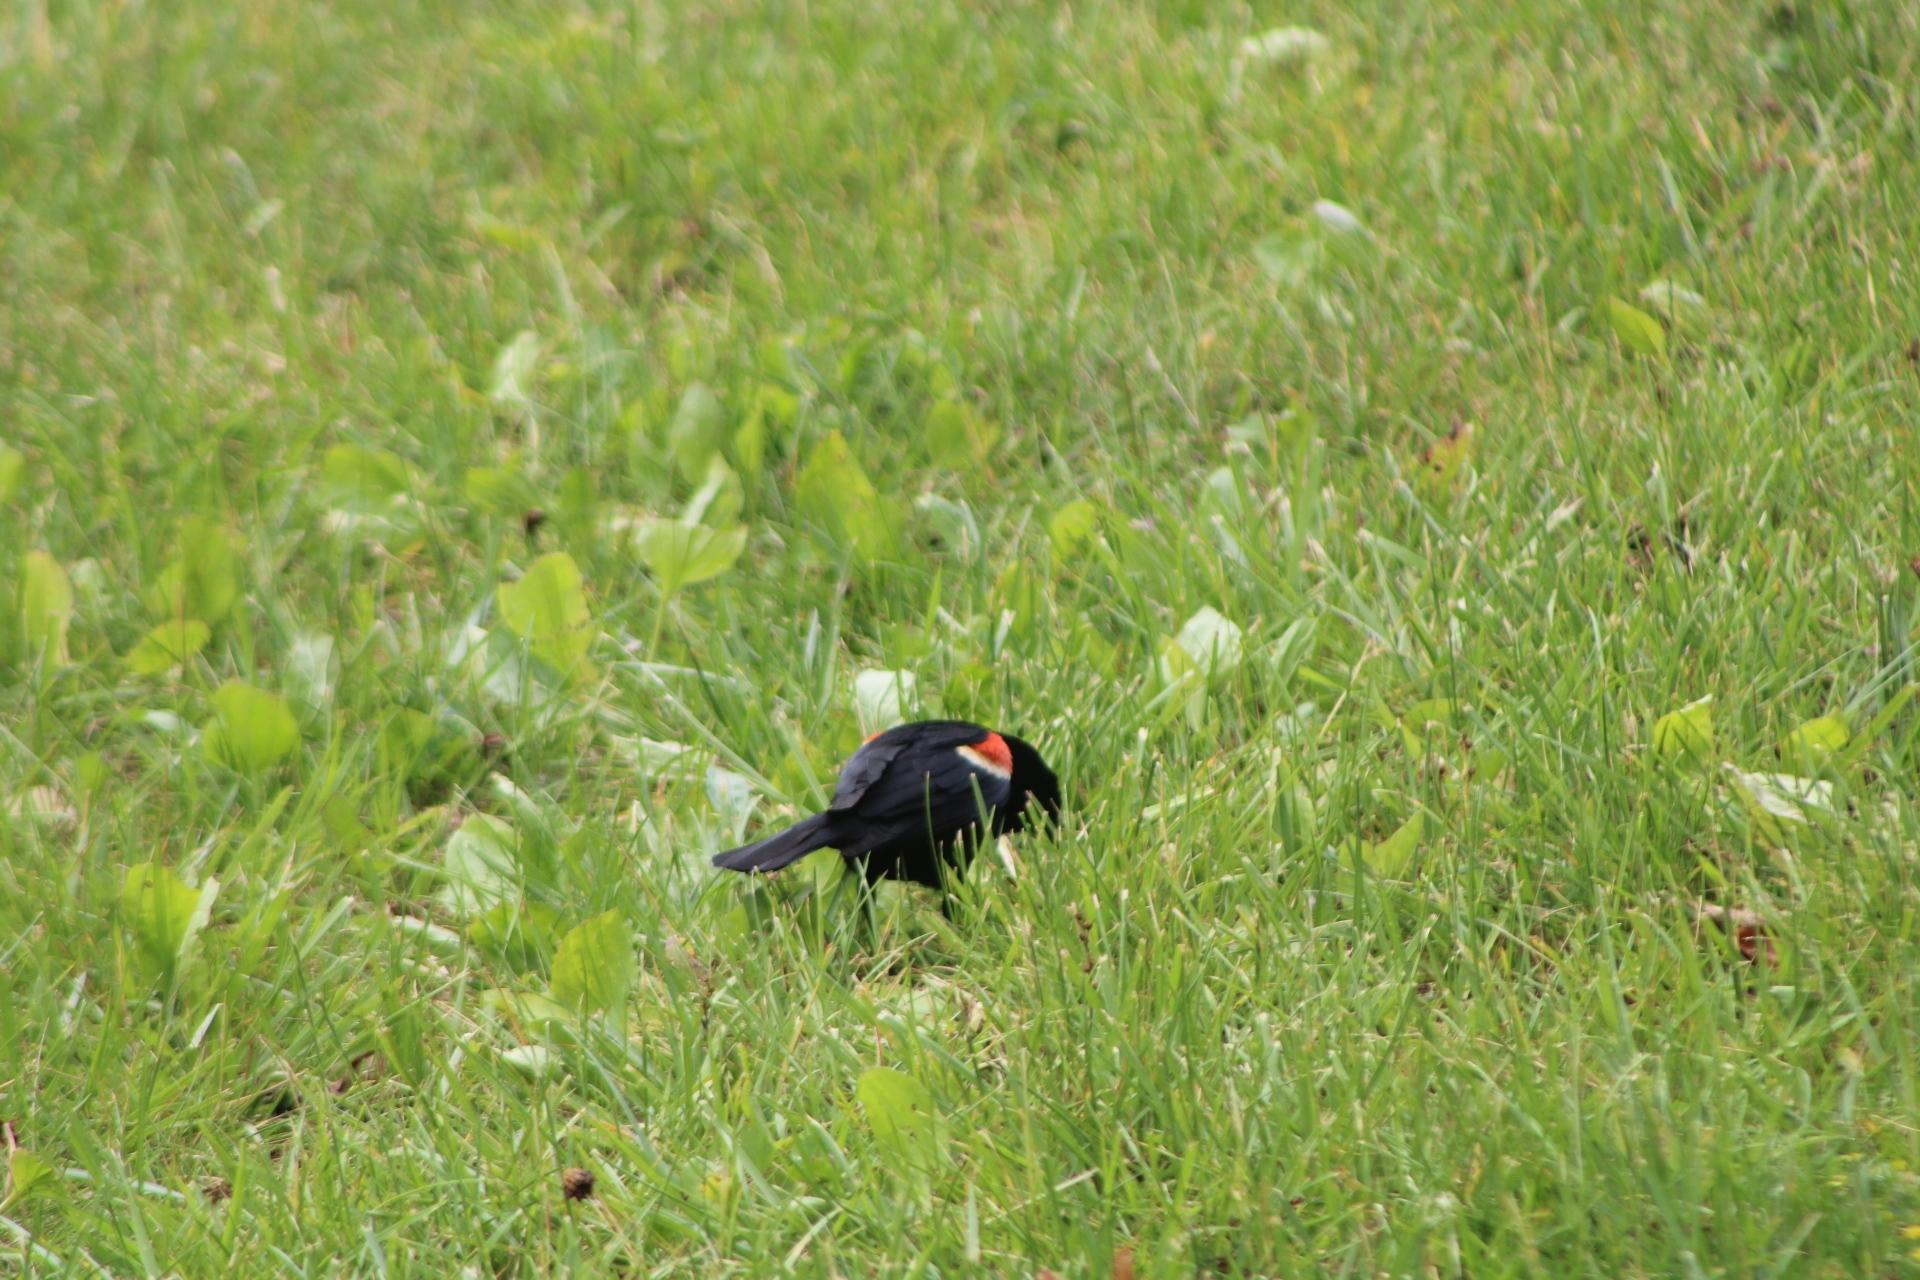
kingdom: Animalia
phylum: Chordata
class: Aves
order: Passeriformes
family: Icteridae
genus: Agelaius
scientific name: Agelaius phoeniceus
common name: Red-winged blackbird
